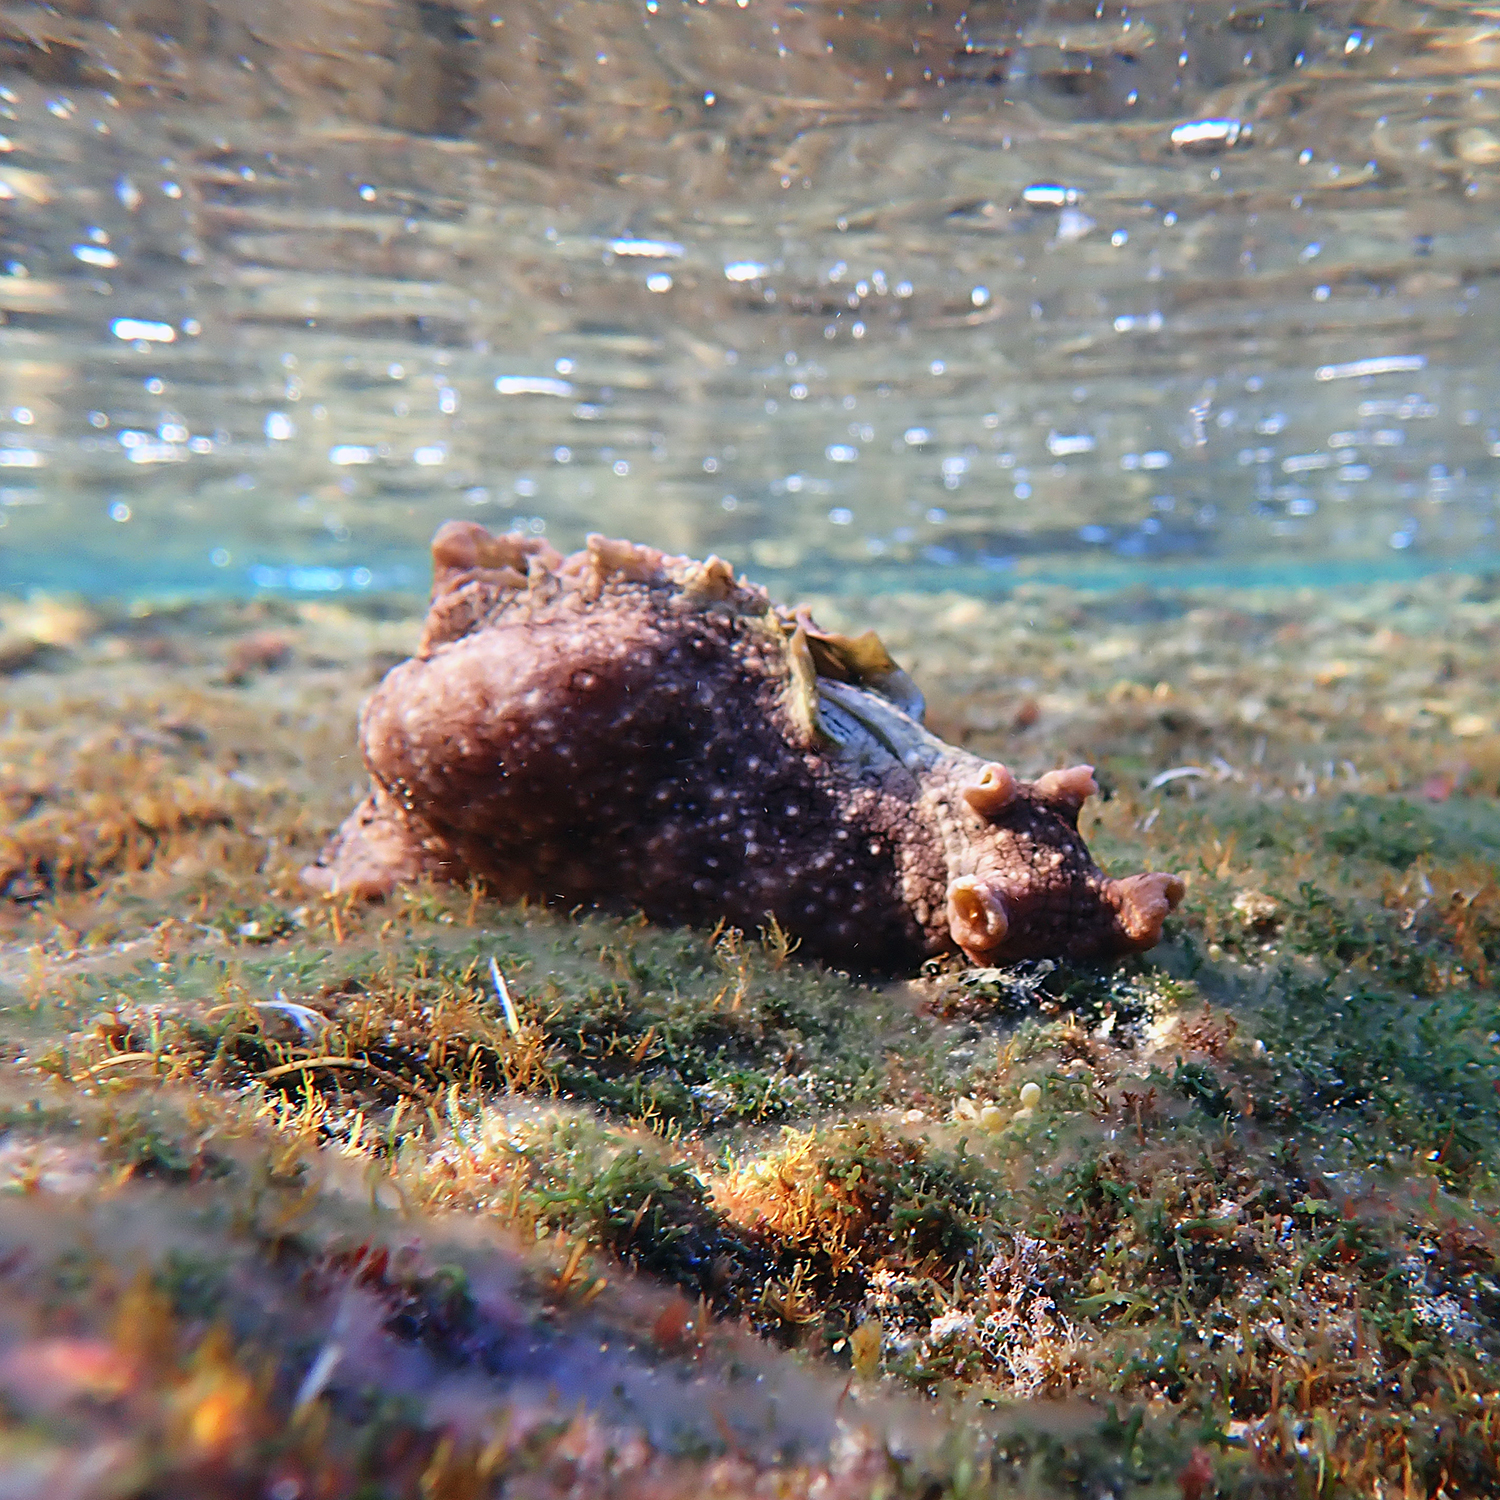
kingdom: Animalia
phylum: Mollusca
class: Gastropoda
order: Aplysiida
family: Aplysiidae
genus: Aplysia
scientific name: Aplysia argus
